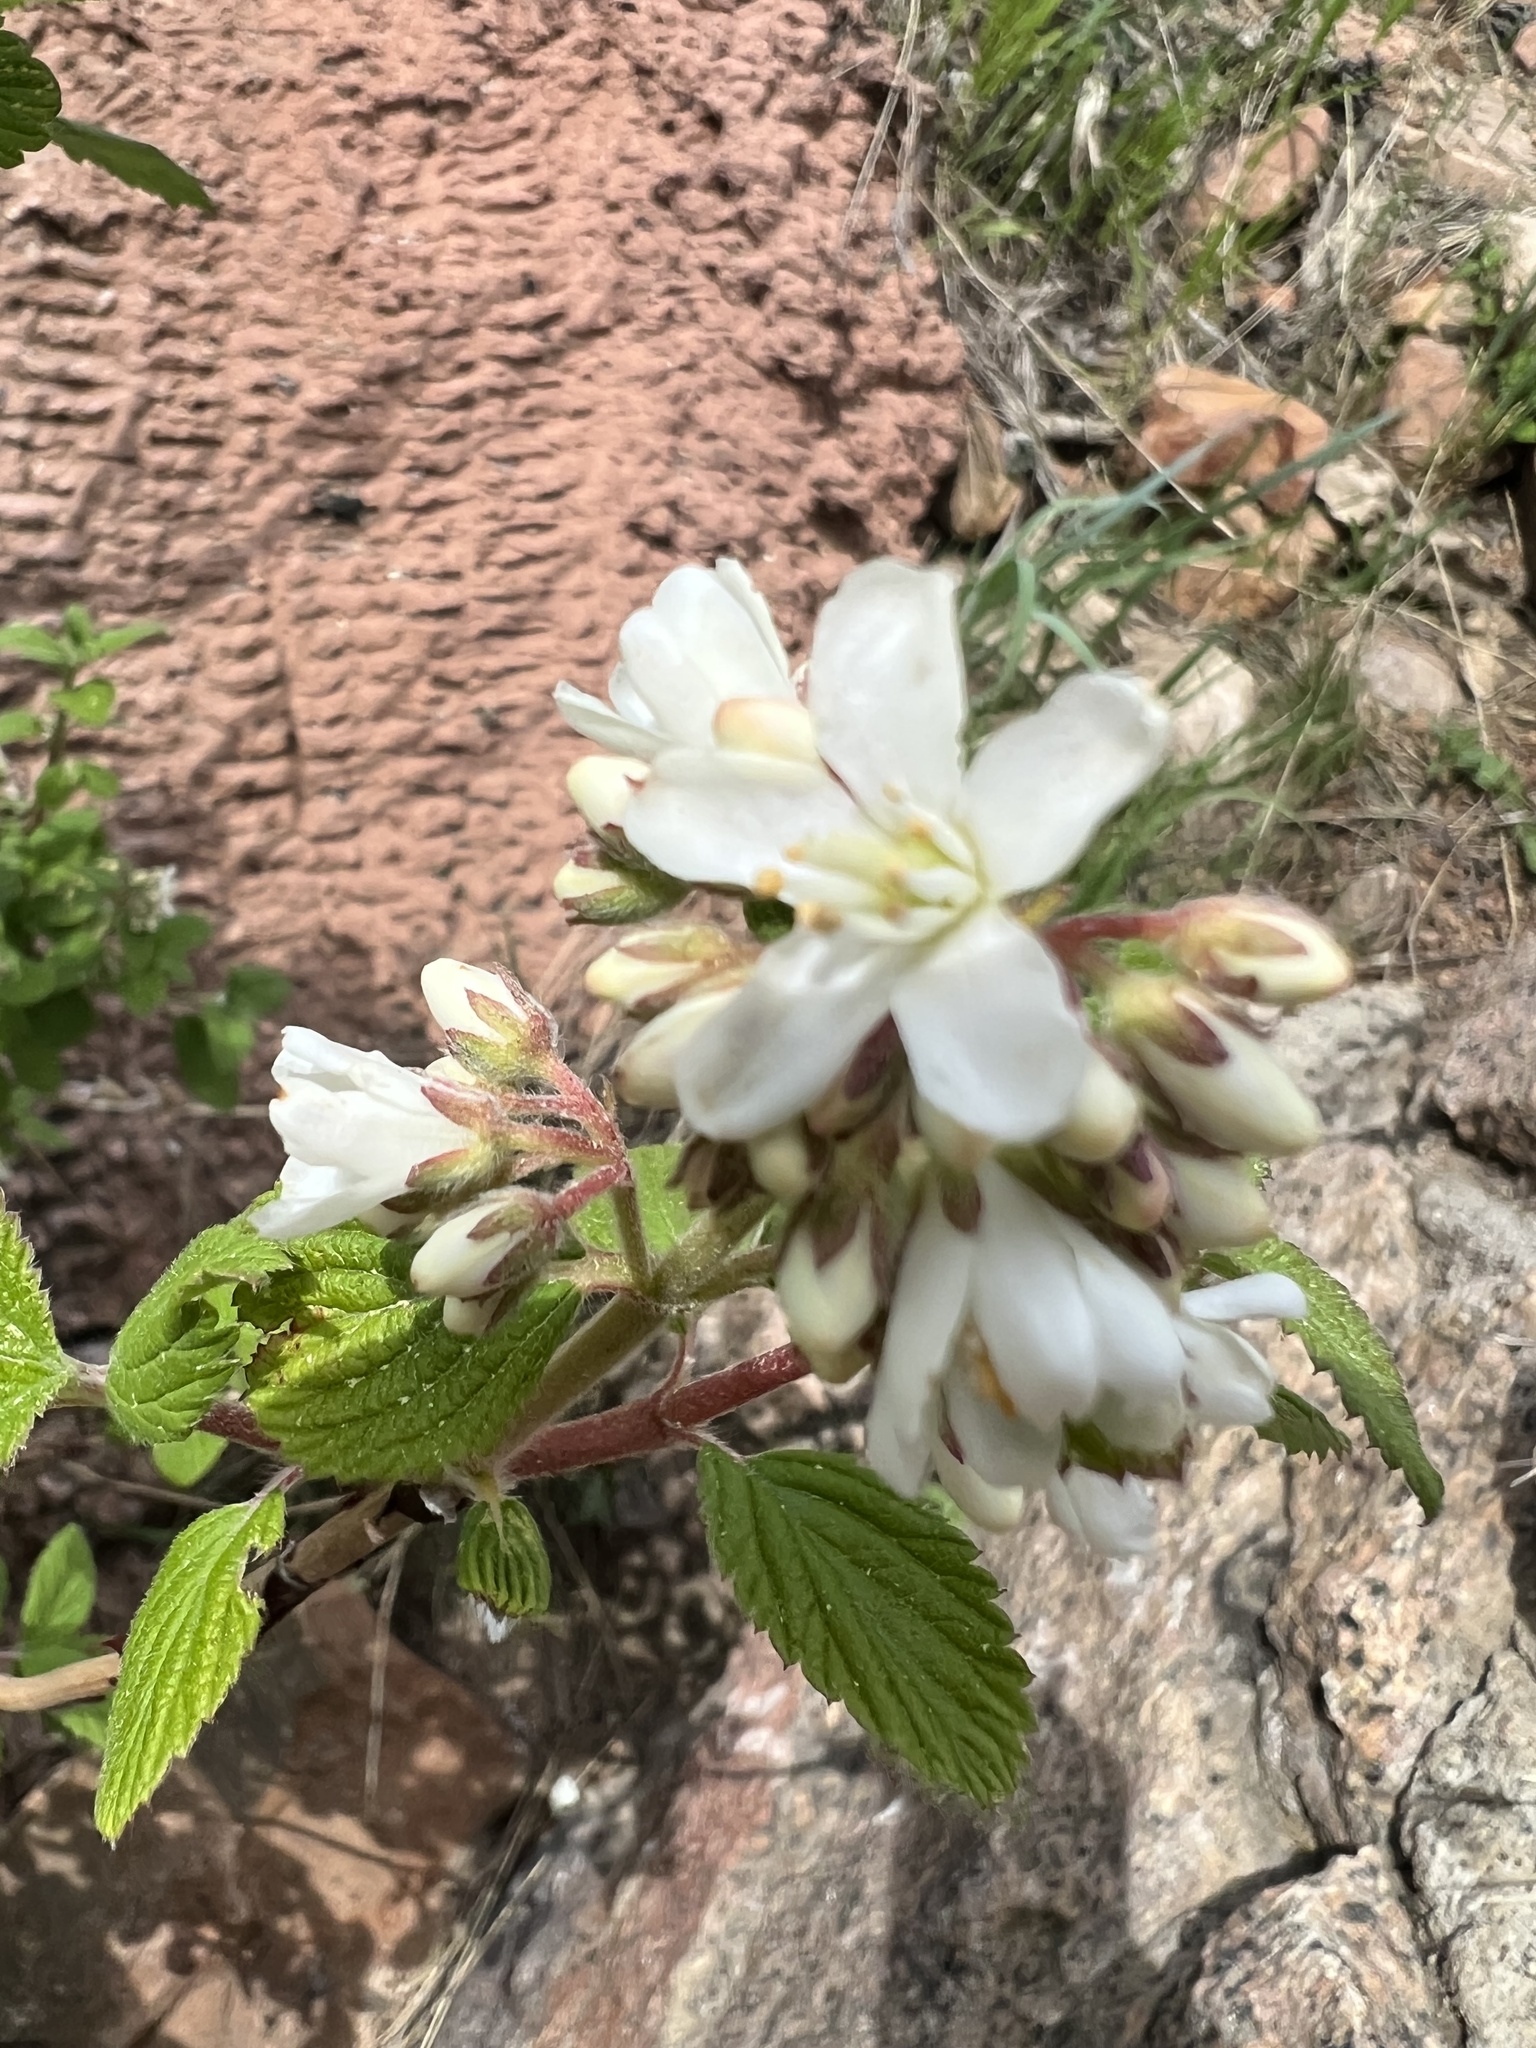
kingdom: Plantae
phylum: Tracheophyta
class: Magnoliopsida
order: Cornales
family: Hydrangeaceae
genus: Jamesia
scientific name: Jamesia americana
